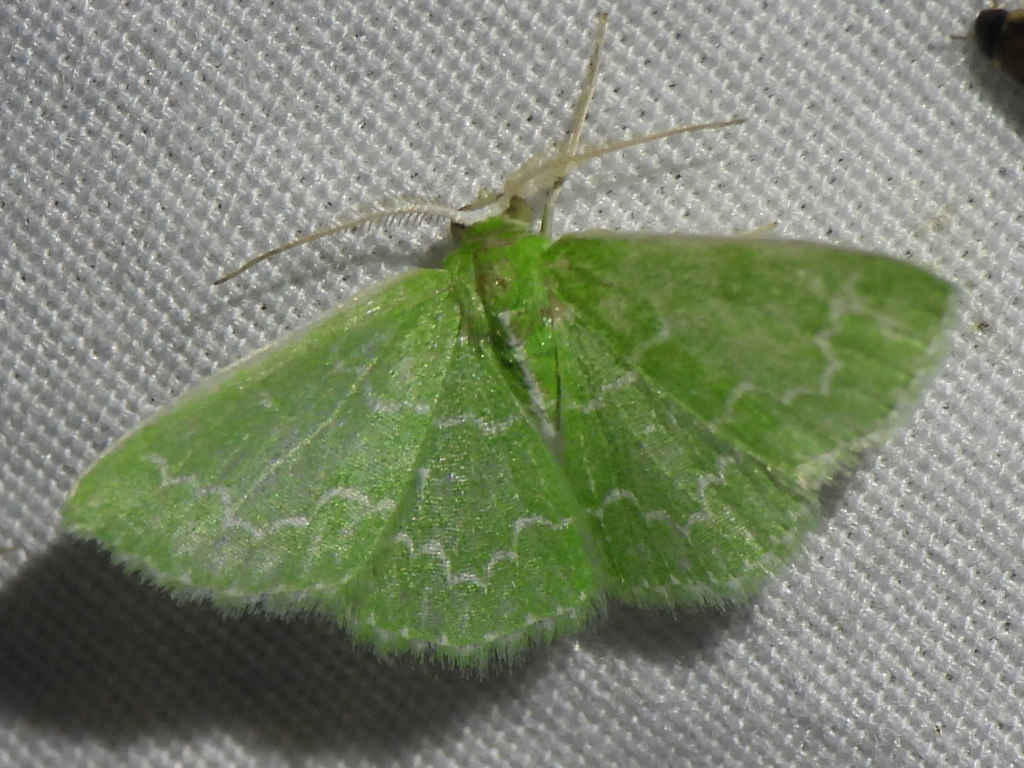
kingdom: Animalia
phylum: Arthropoda
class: Insecta
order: Lepidoptera
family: Geometridae
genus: Synchlora
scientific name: Synchlora frondaria
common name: Southern emerald
